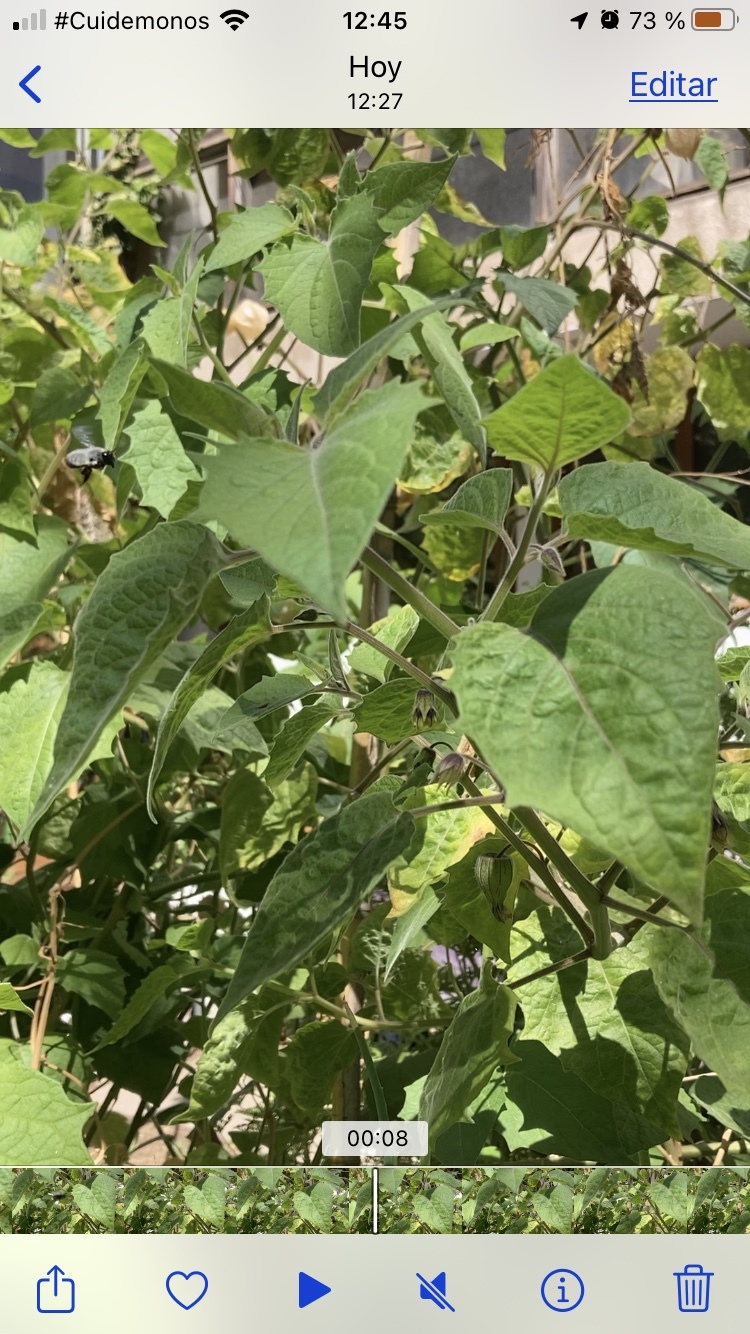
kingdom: Animalia
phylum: Arthropoda
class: Insecta
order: Hymenoptera
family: Megachilidae
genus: Megachile
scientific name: Megachile saulcyi
